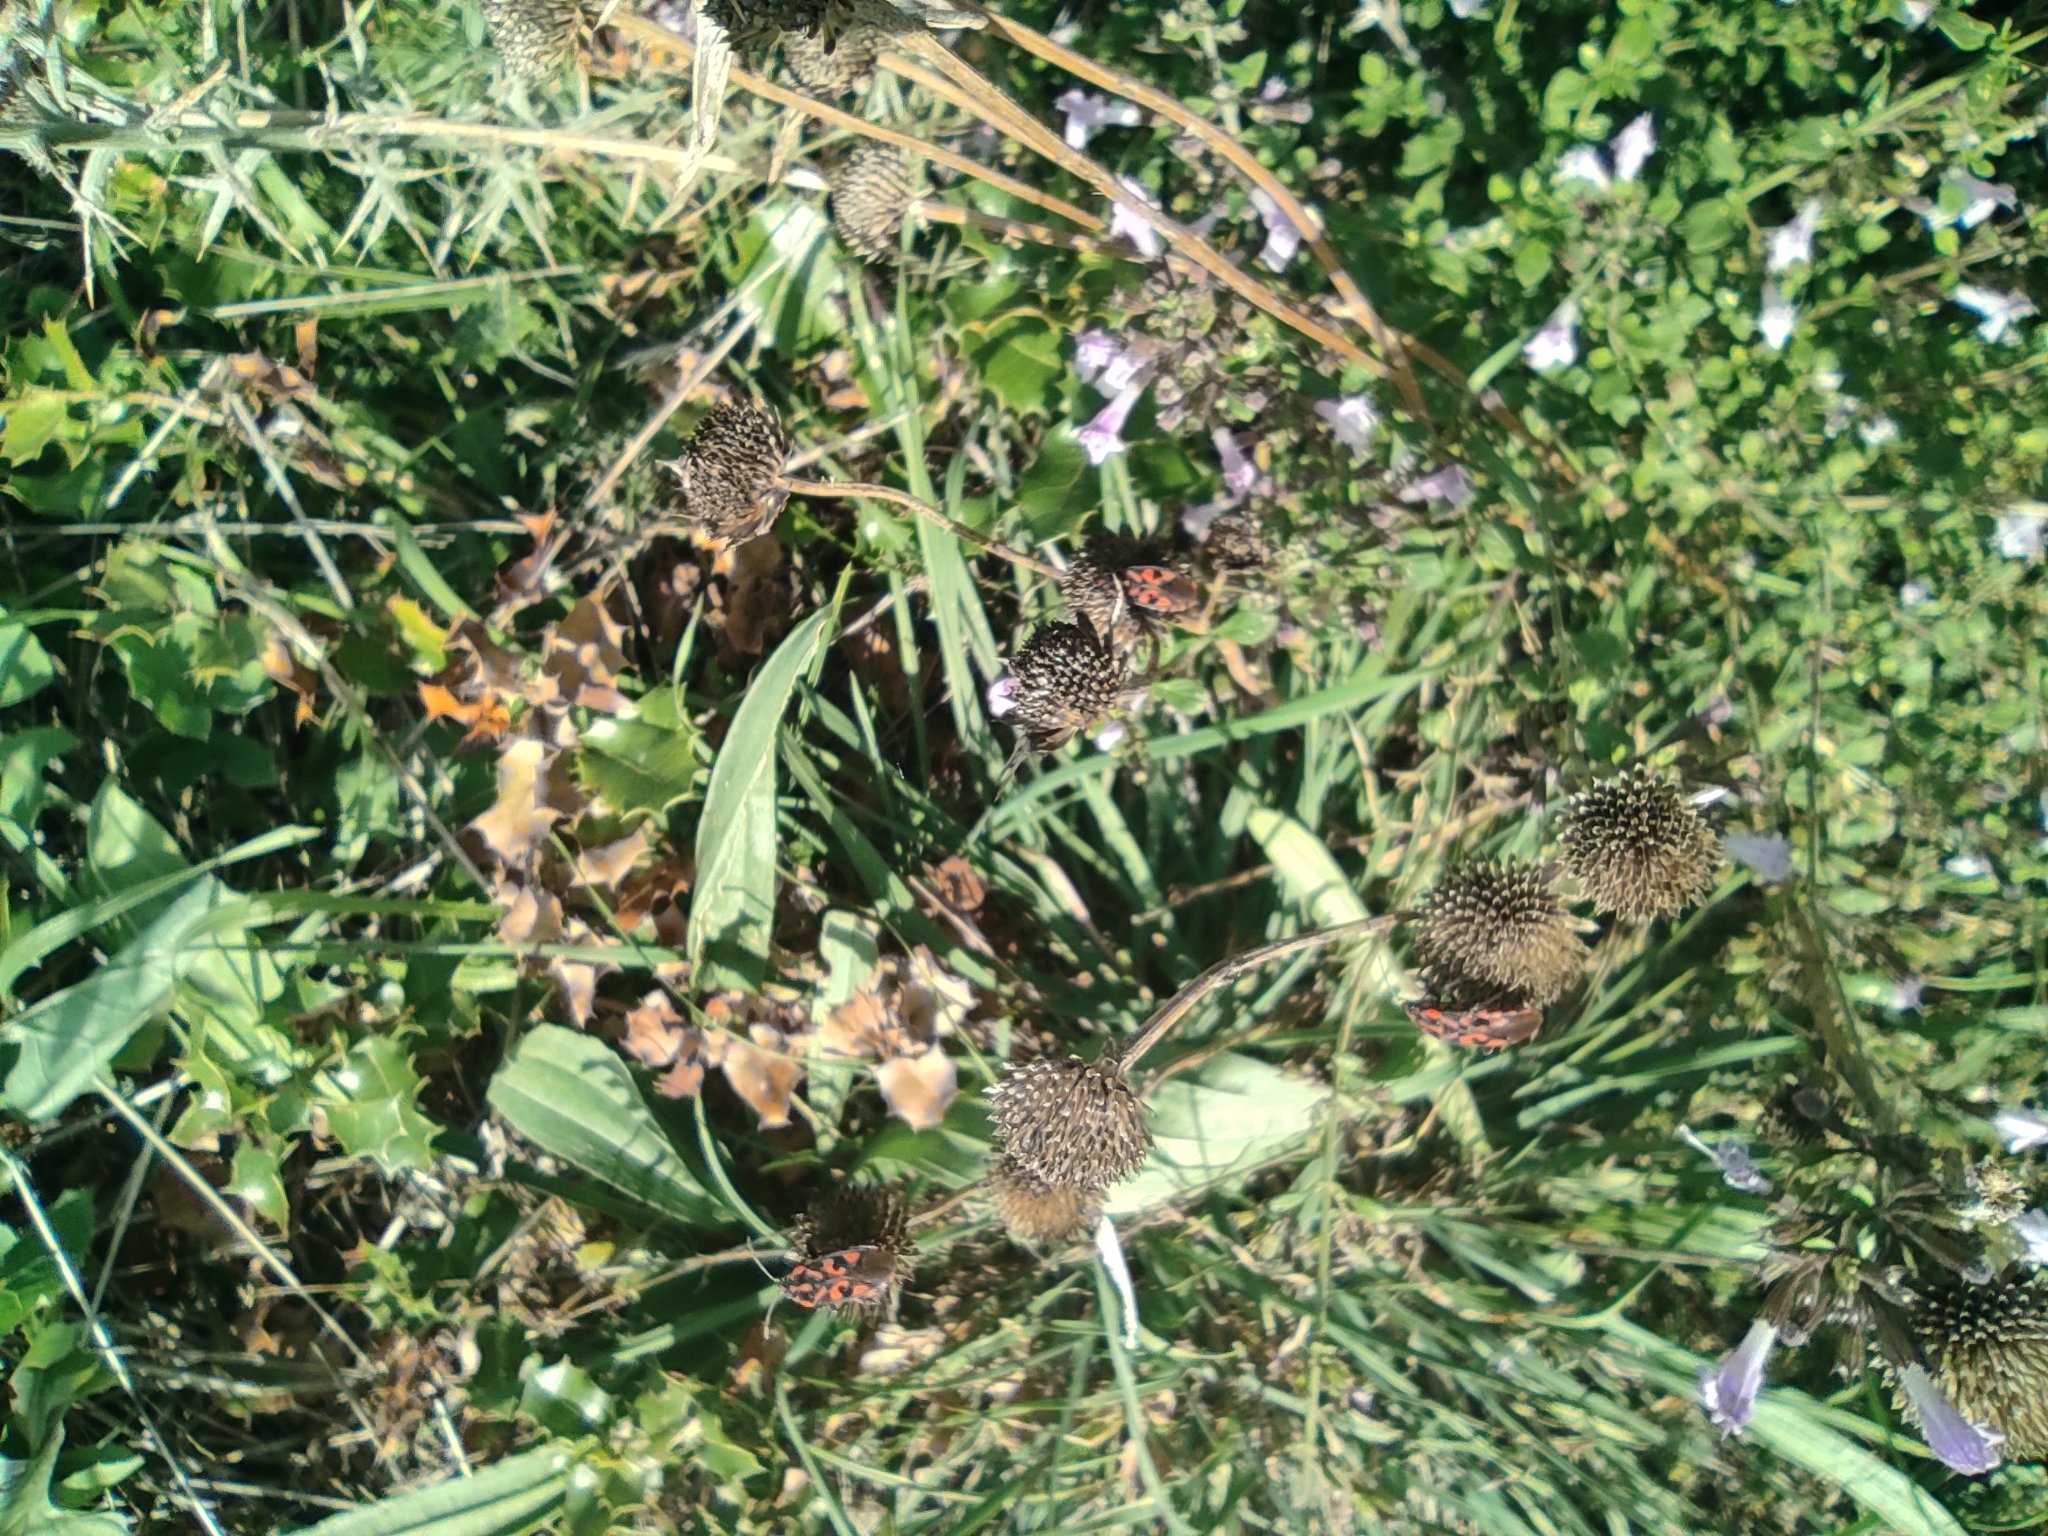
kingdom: Animalia
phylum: Arthropoda
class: Insecta
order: Hemiptera
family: Lygaeidae
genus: Spilostethus
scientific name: Spilostethus saxatilis
